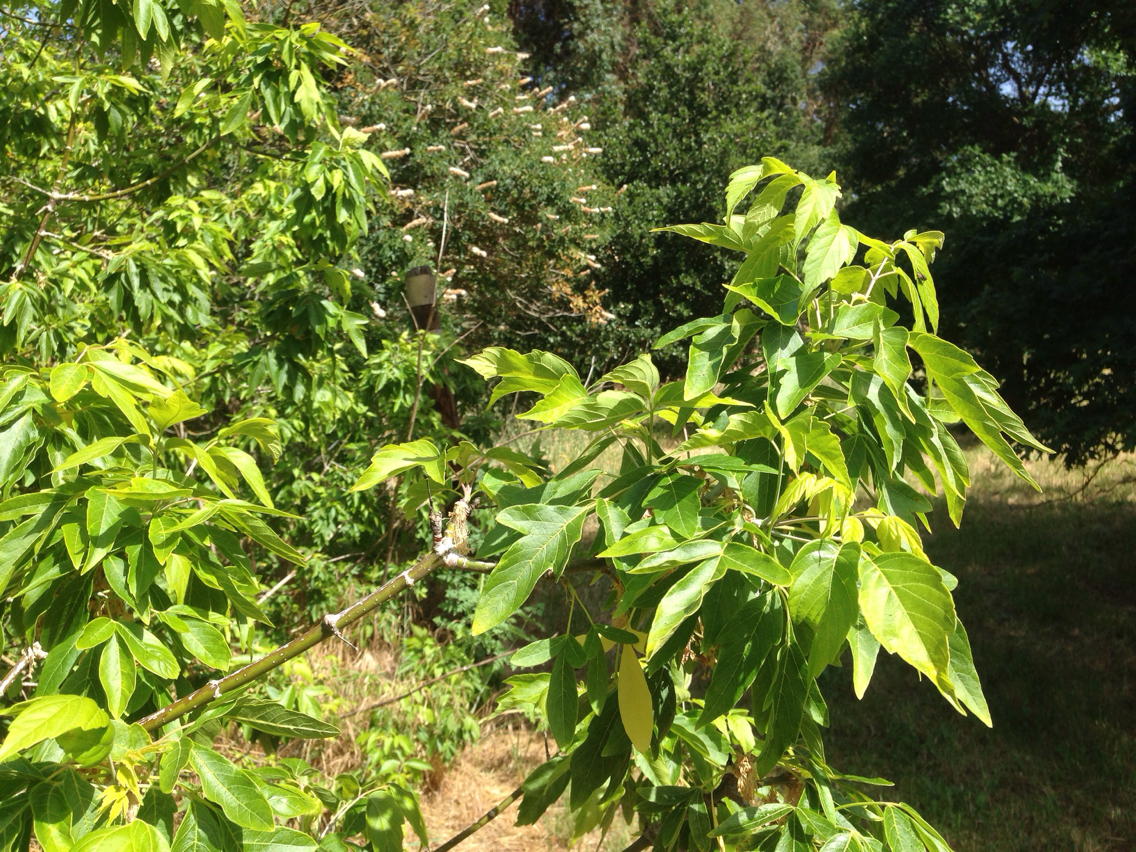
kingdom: Plantae
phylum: Tracheophyta
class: Magnoliopsida
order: Sapindales
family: Sapindaceae
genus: Acer
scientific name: Acer negundo
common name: Ashleaf maple
